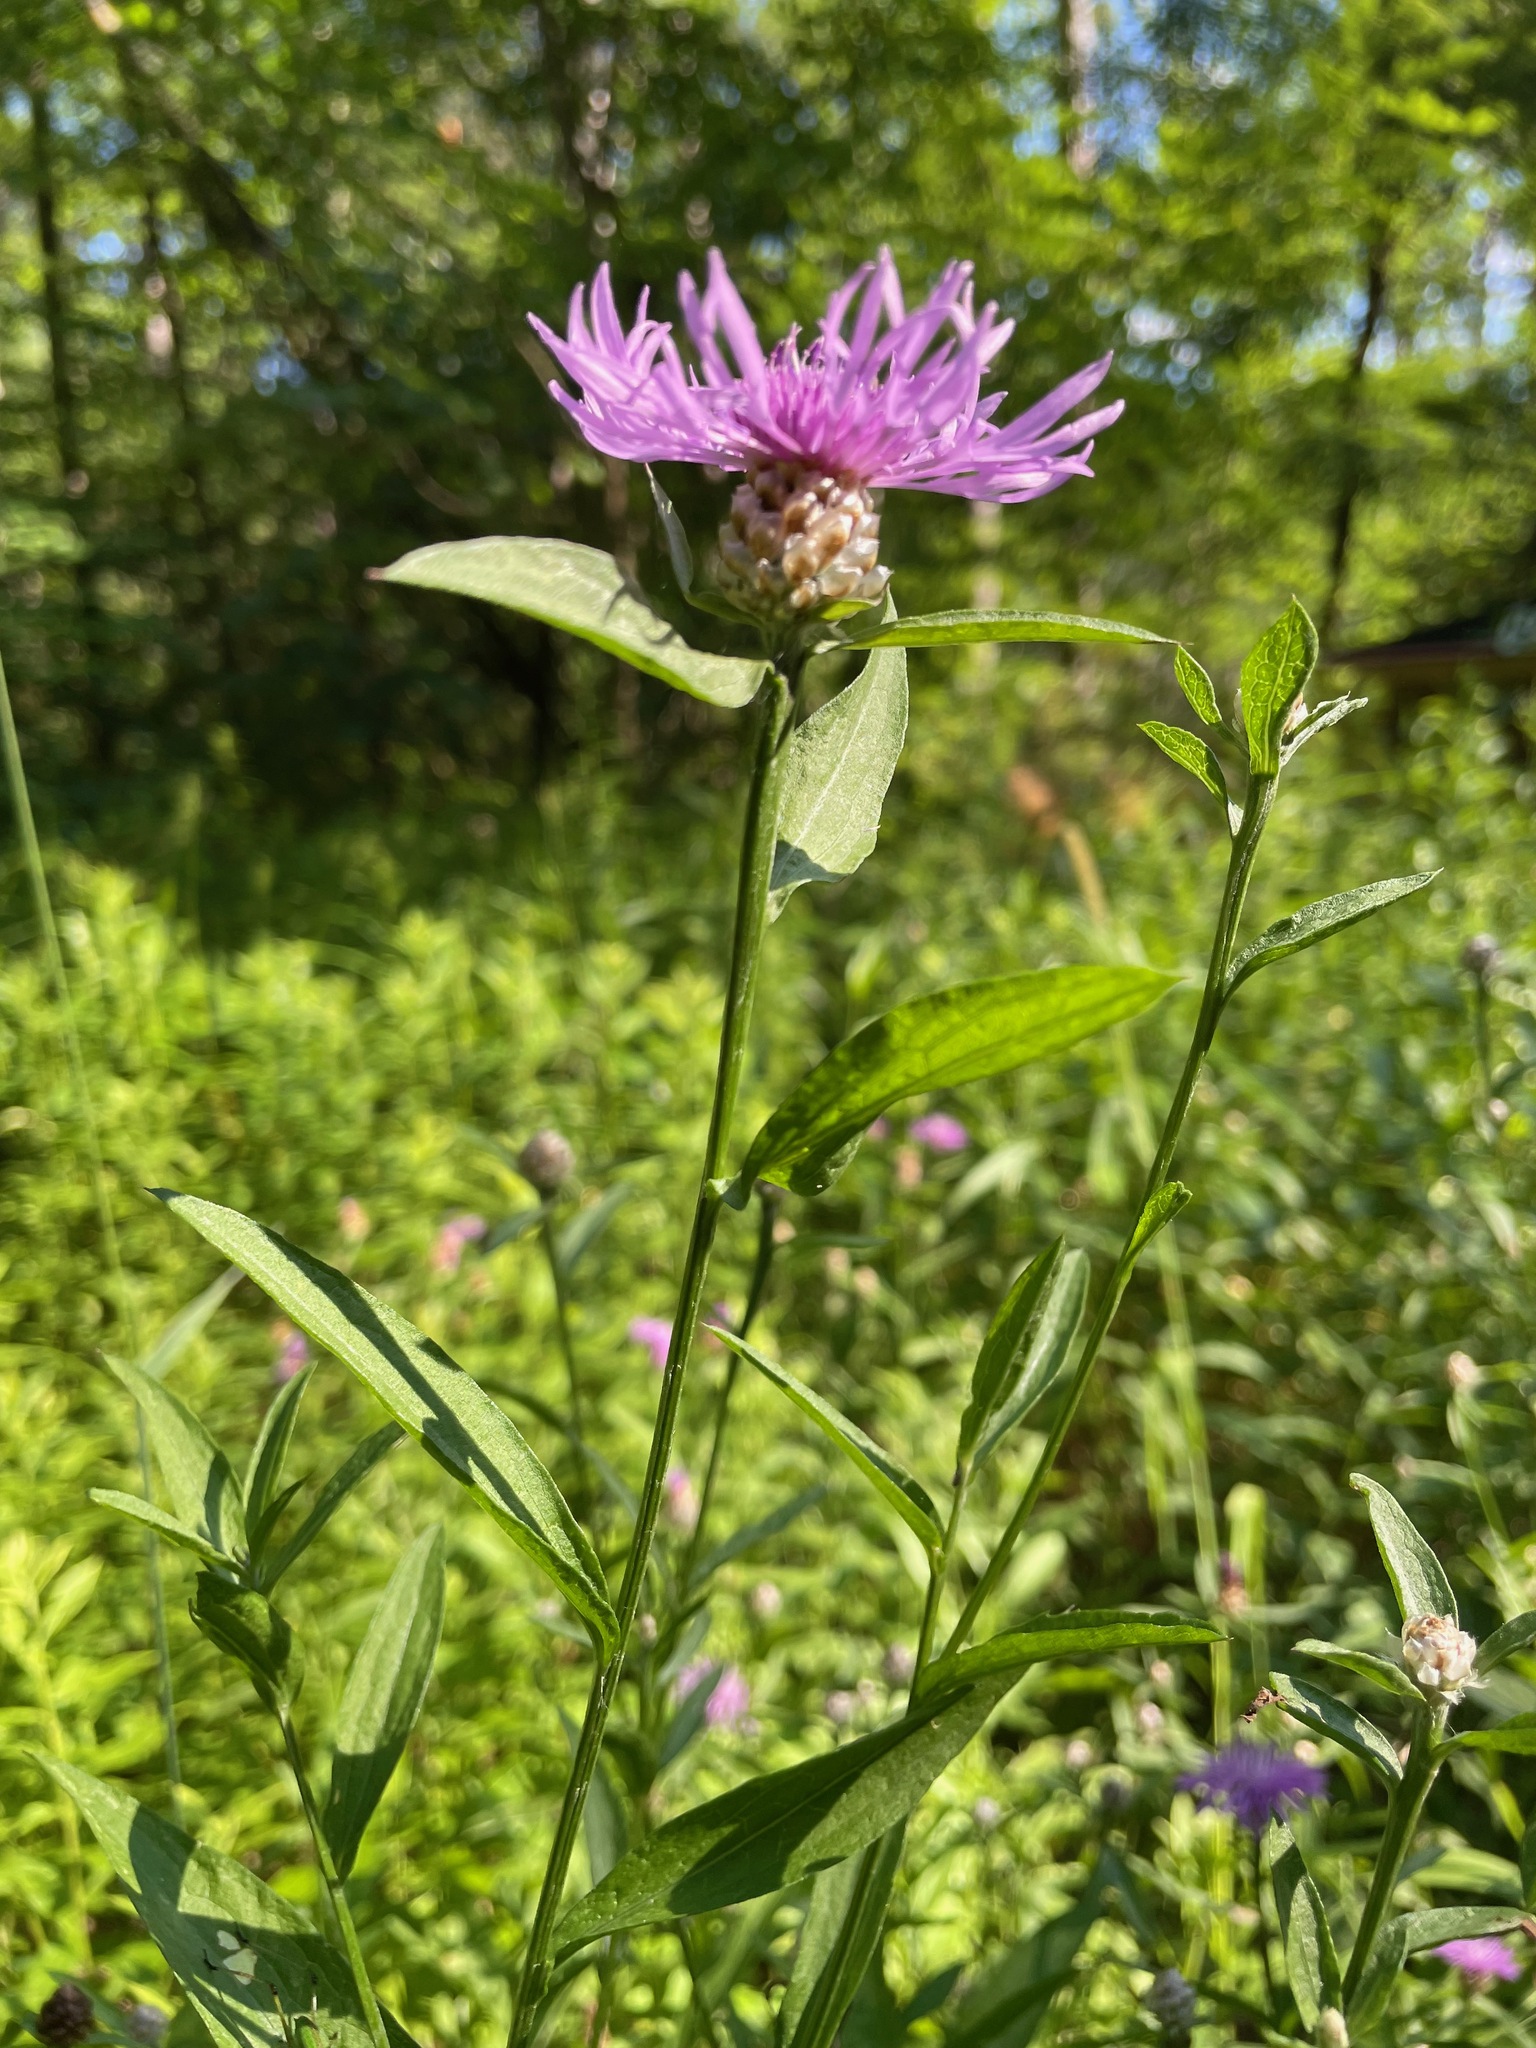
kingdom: Plantae
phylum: Tracheophyta
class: Magnoliopsida
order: Asterales
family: Asteraceae
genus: Centaurea
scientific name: Centaurea jacea
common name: Brown knapweed
